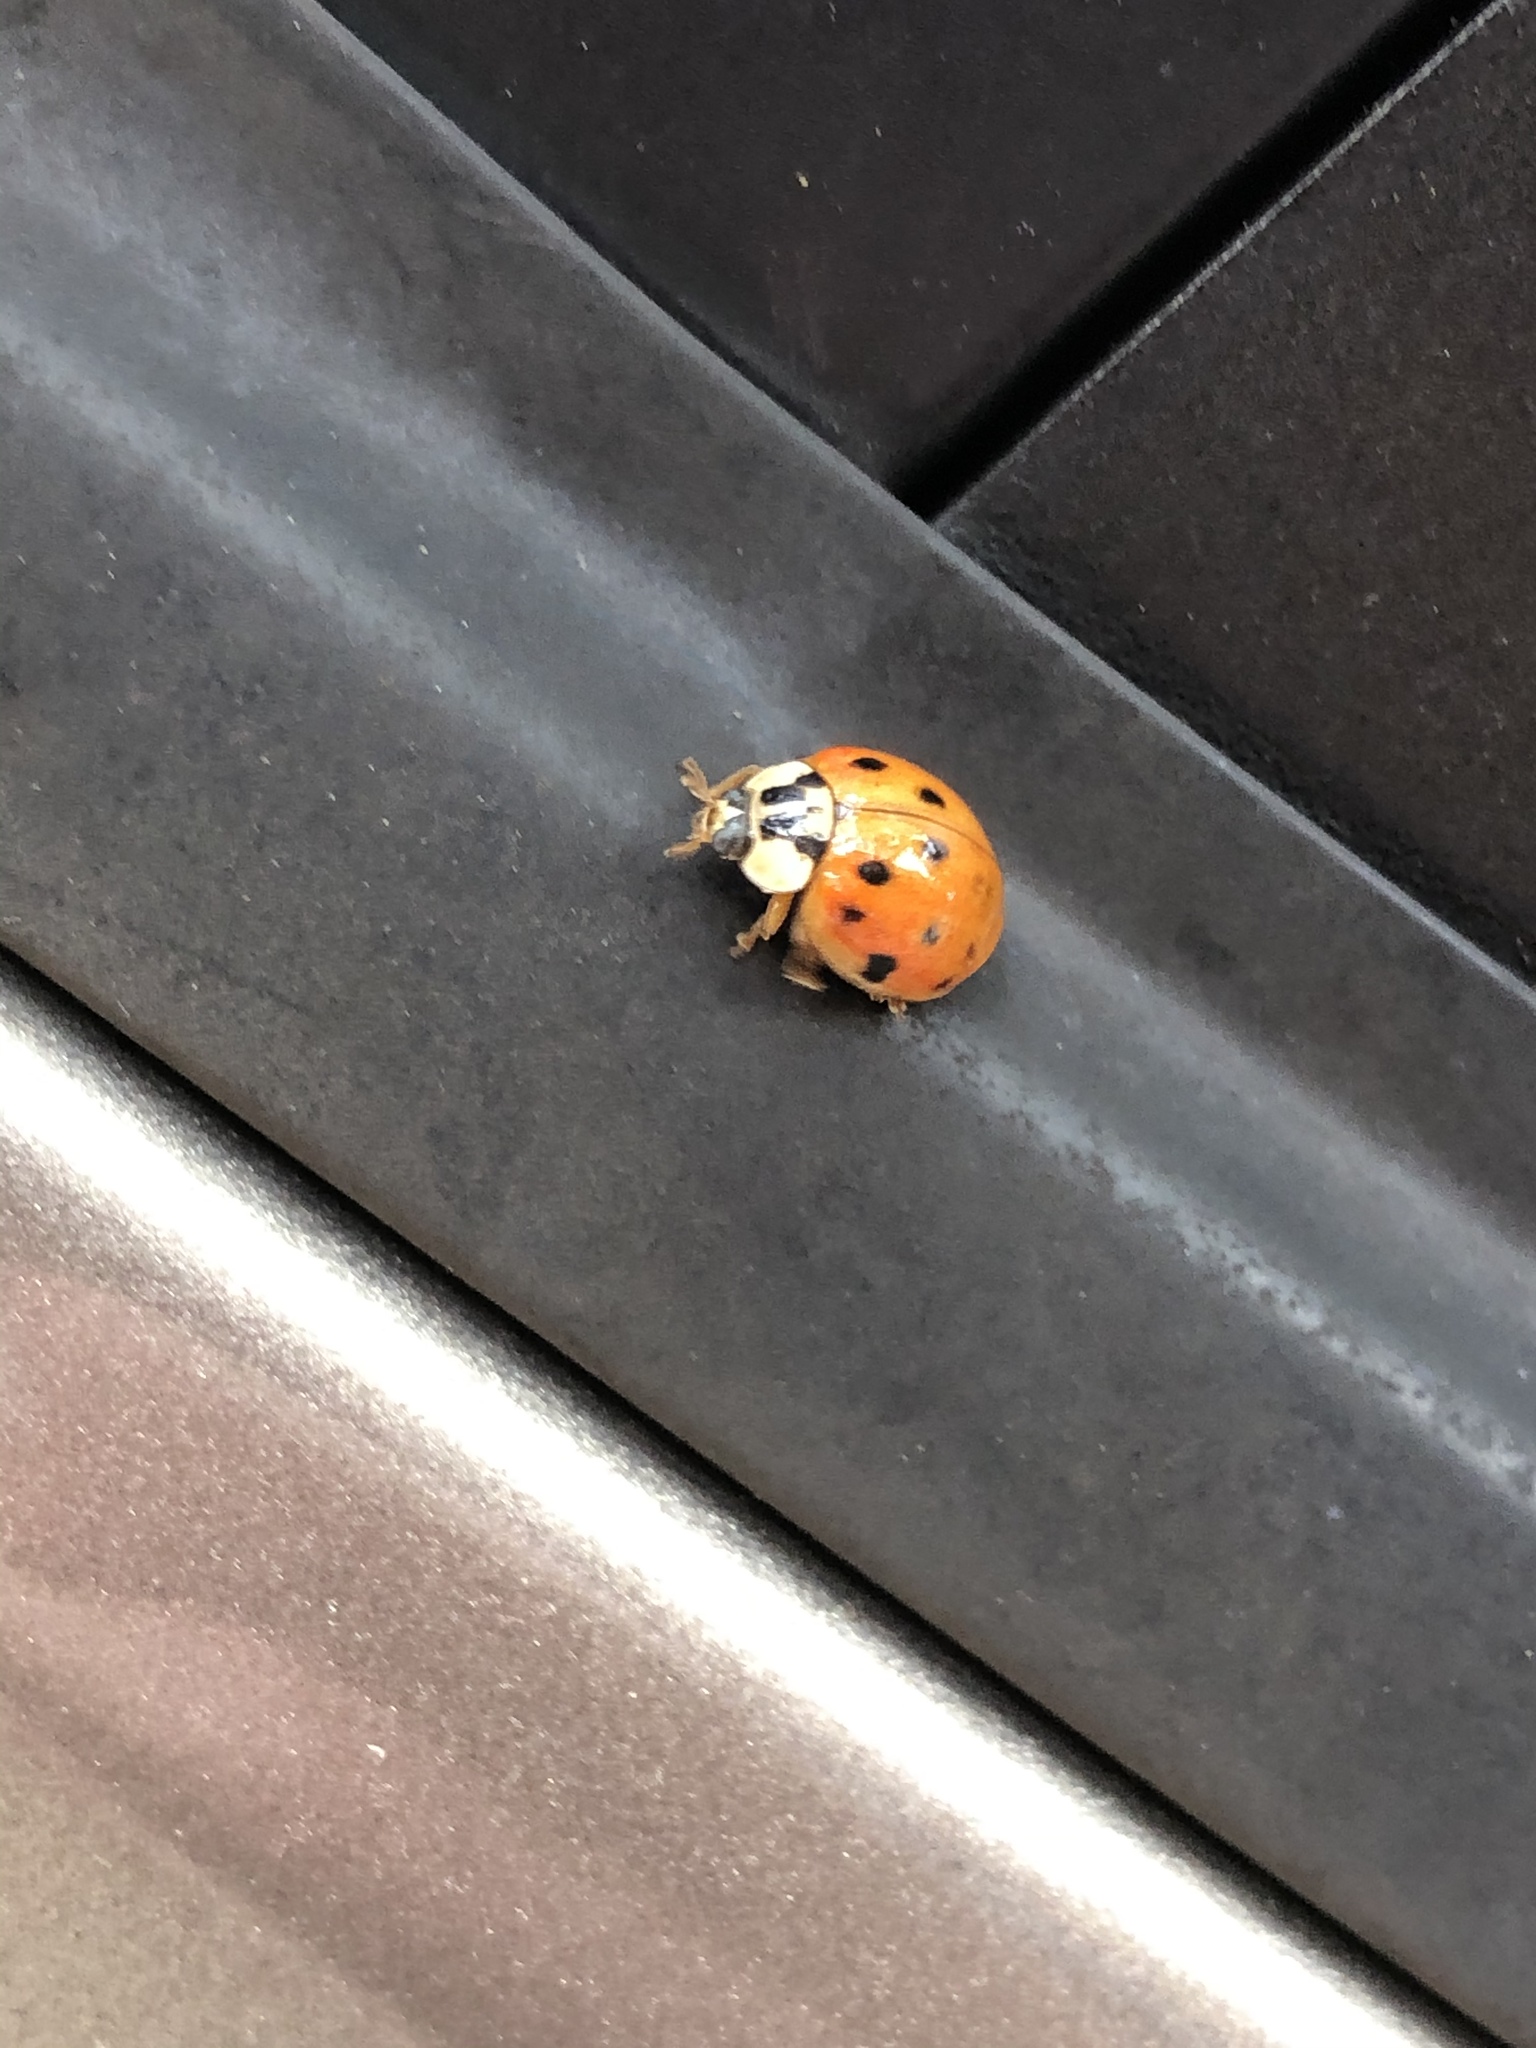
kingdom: Animalia
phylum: Arthropoda
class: Insecta
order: Coleoptera
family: Coccinellidae
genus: Harmonia
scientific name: Harmonia axyridis
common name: Harlequin ladybird
